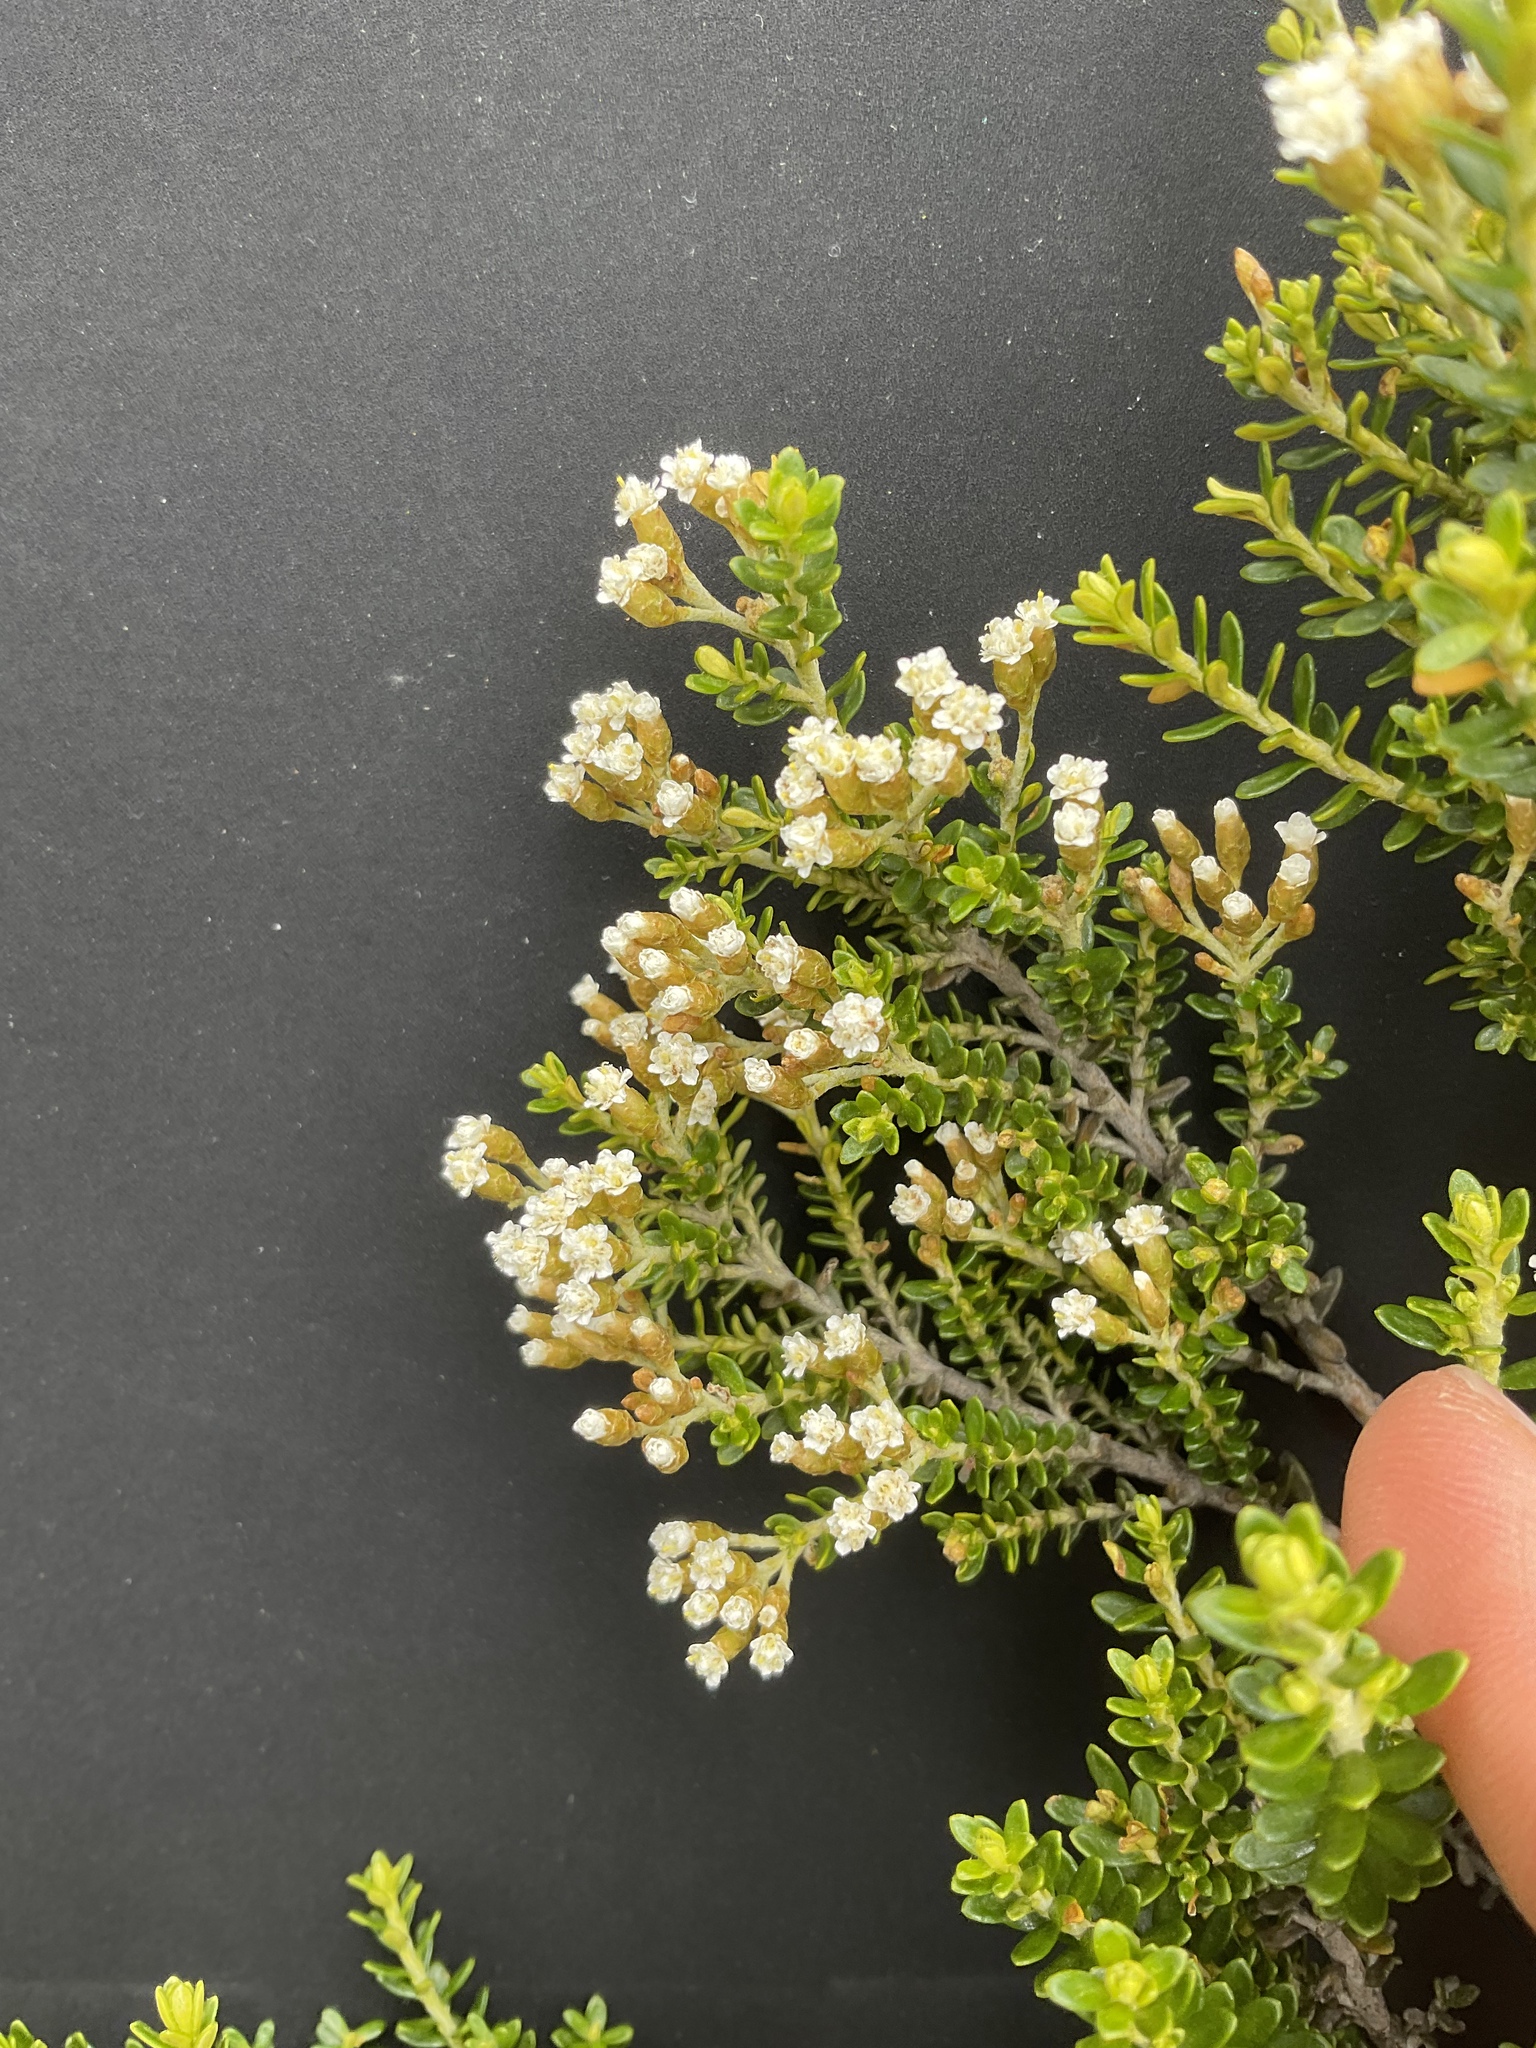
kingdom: Plantae
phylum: Tracheophyta
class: Magnoliopsida
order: Asterales
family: Asteraceae
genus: Ozothamnus
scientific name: Ozothamnus leptophyllus
